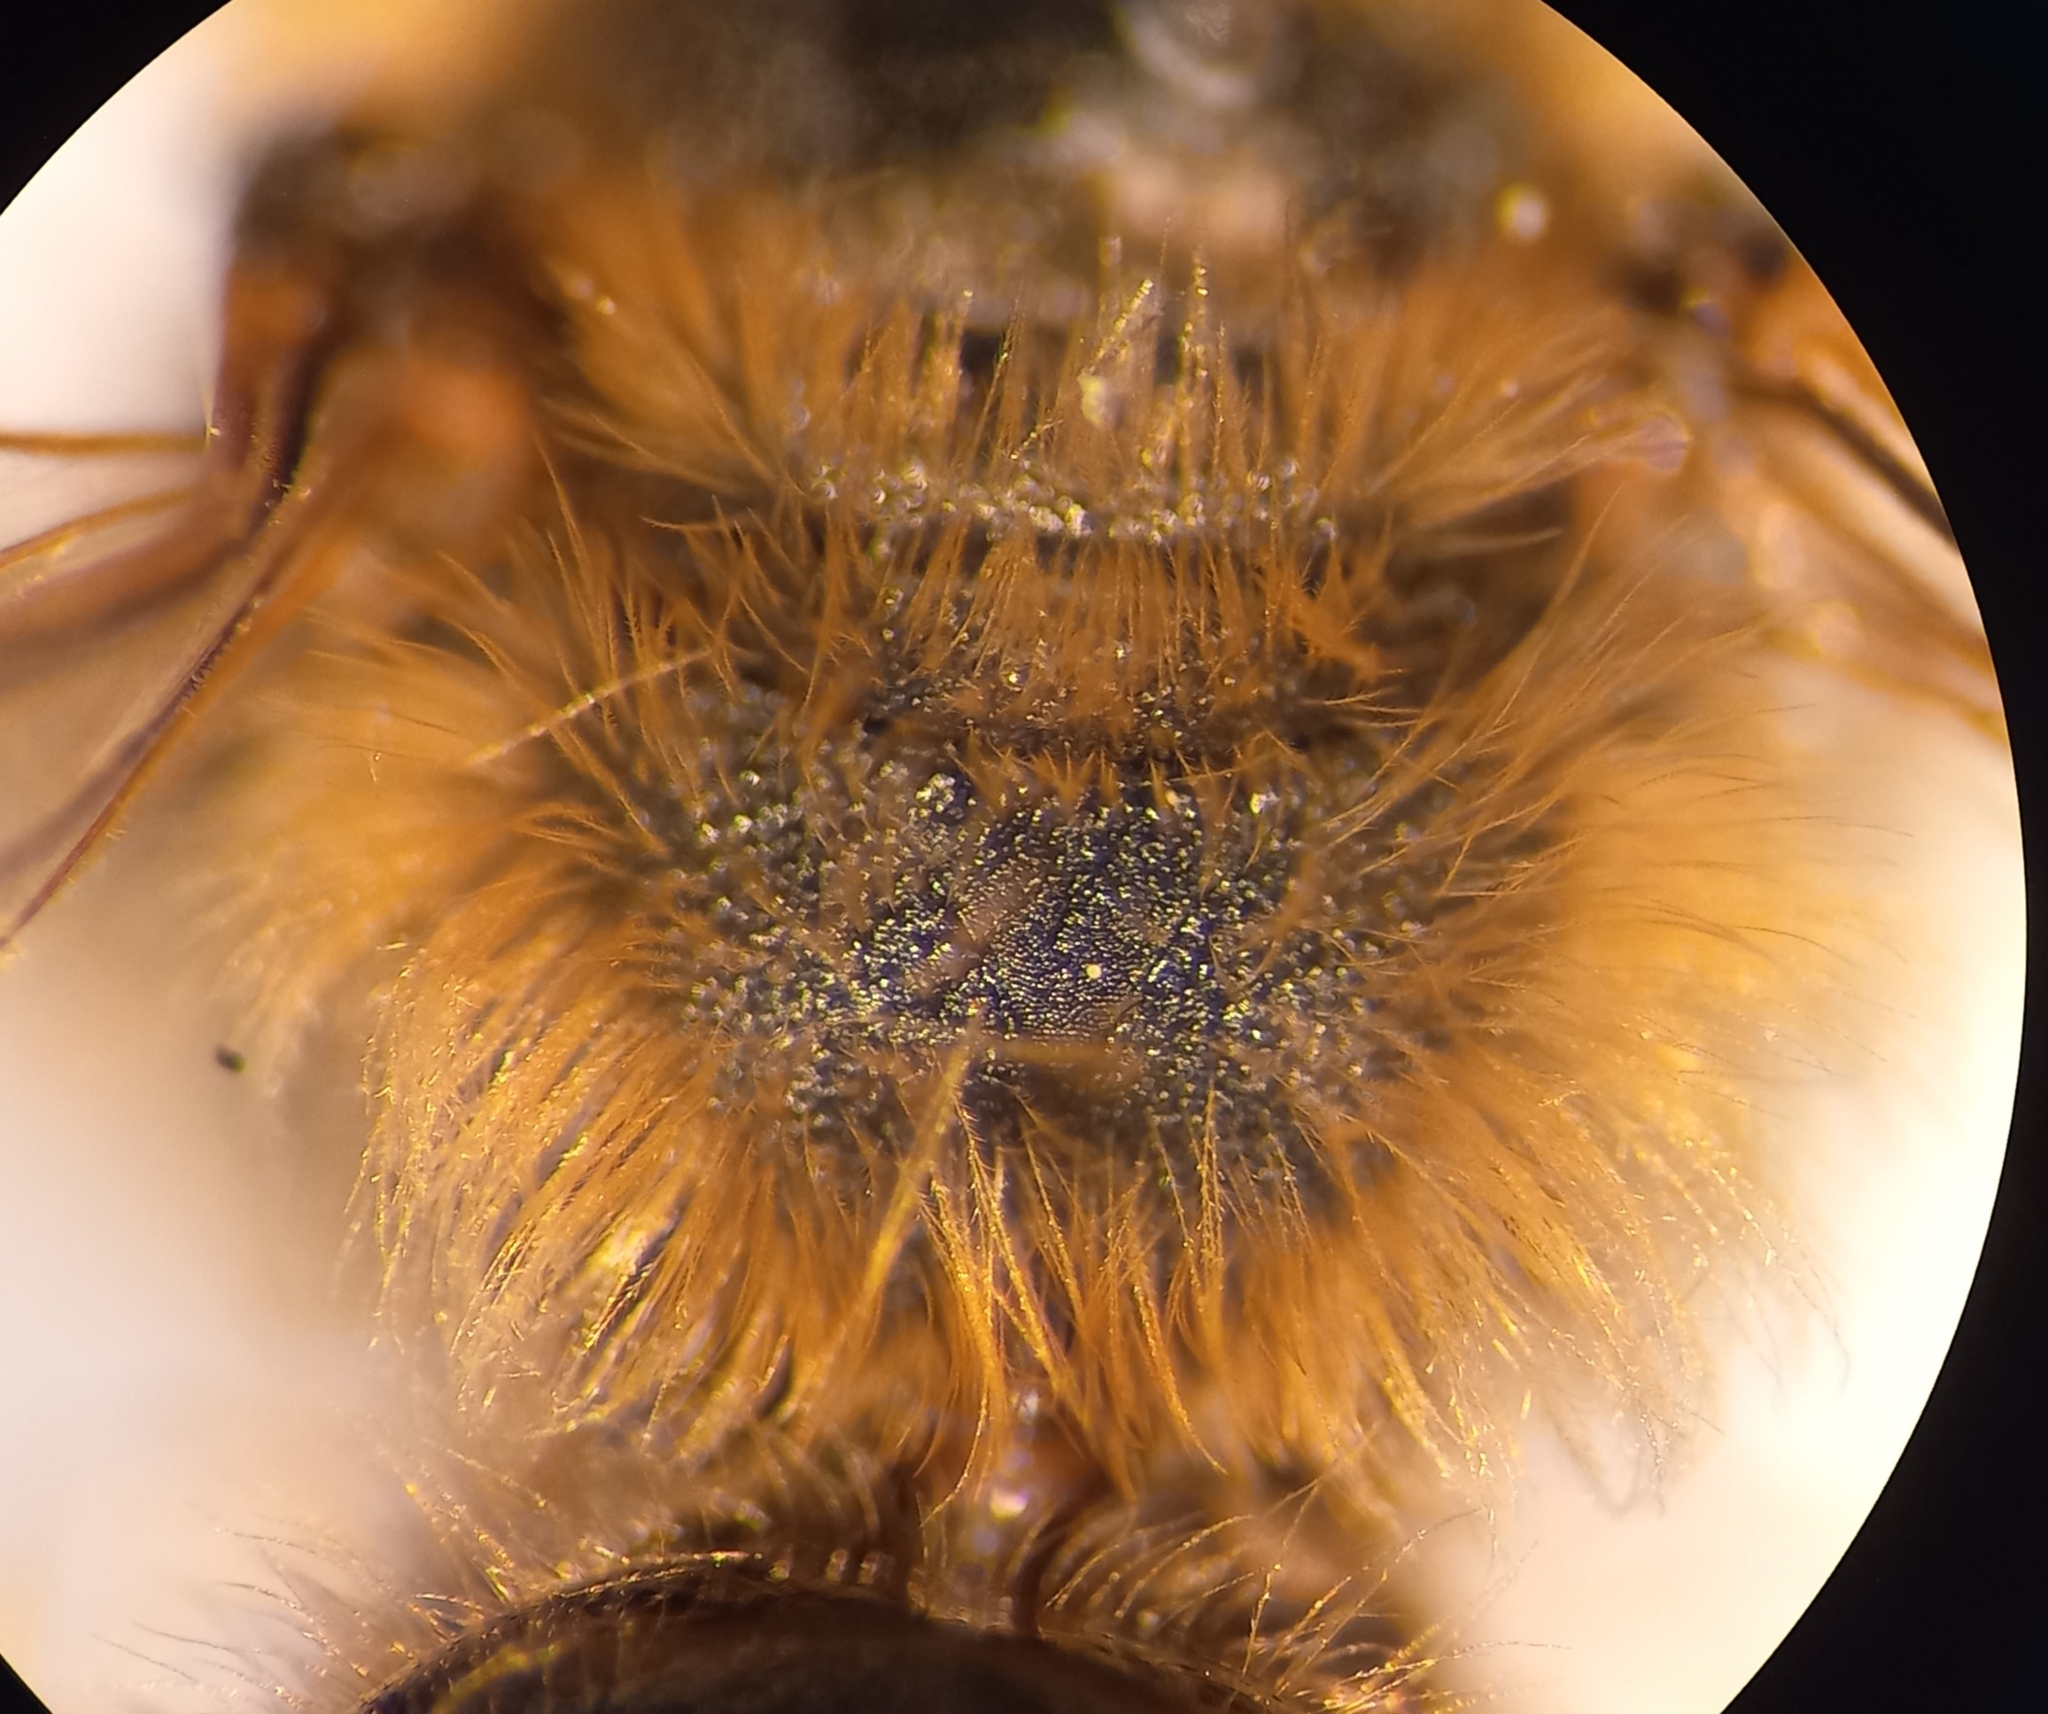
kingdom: Animalia
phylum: Arthropoda
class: Insecta
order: Hymenoptera
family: Andrenidae
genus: Andrena
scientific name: Andrena flavipes
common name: Yellow-legged mining bee
